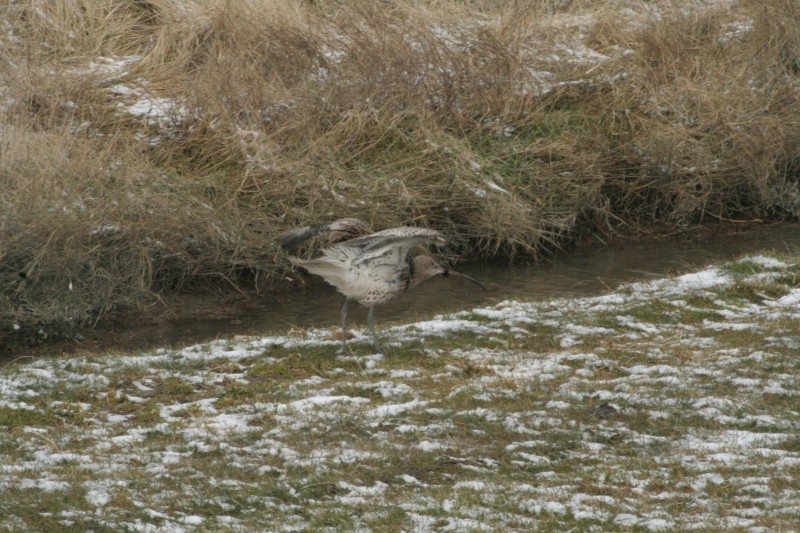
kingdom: Animalia
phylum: Chordata
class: Aves
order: Charadriiformes
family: Scolopacidae
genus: Numenius
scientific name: Numenius arquata
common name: Eurasian curlew
